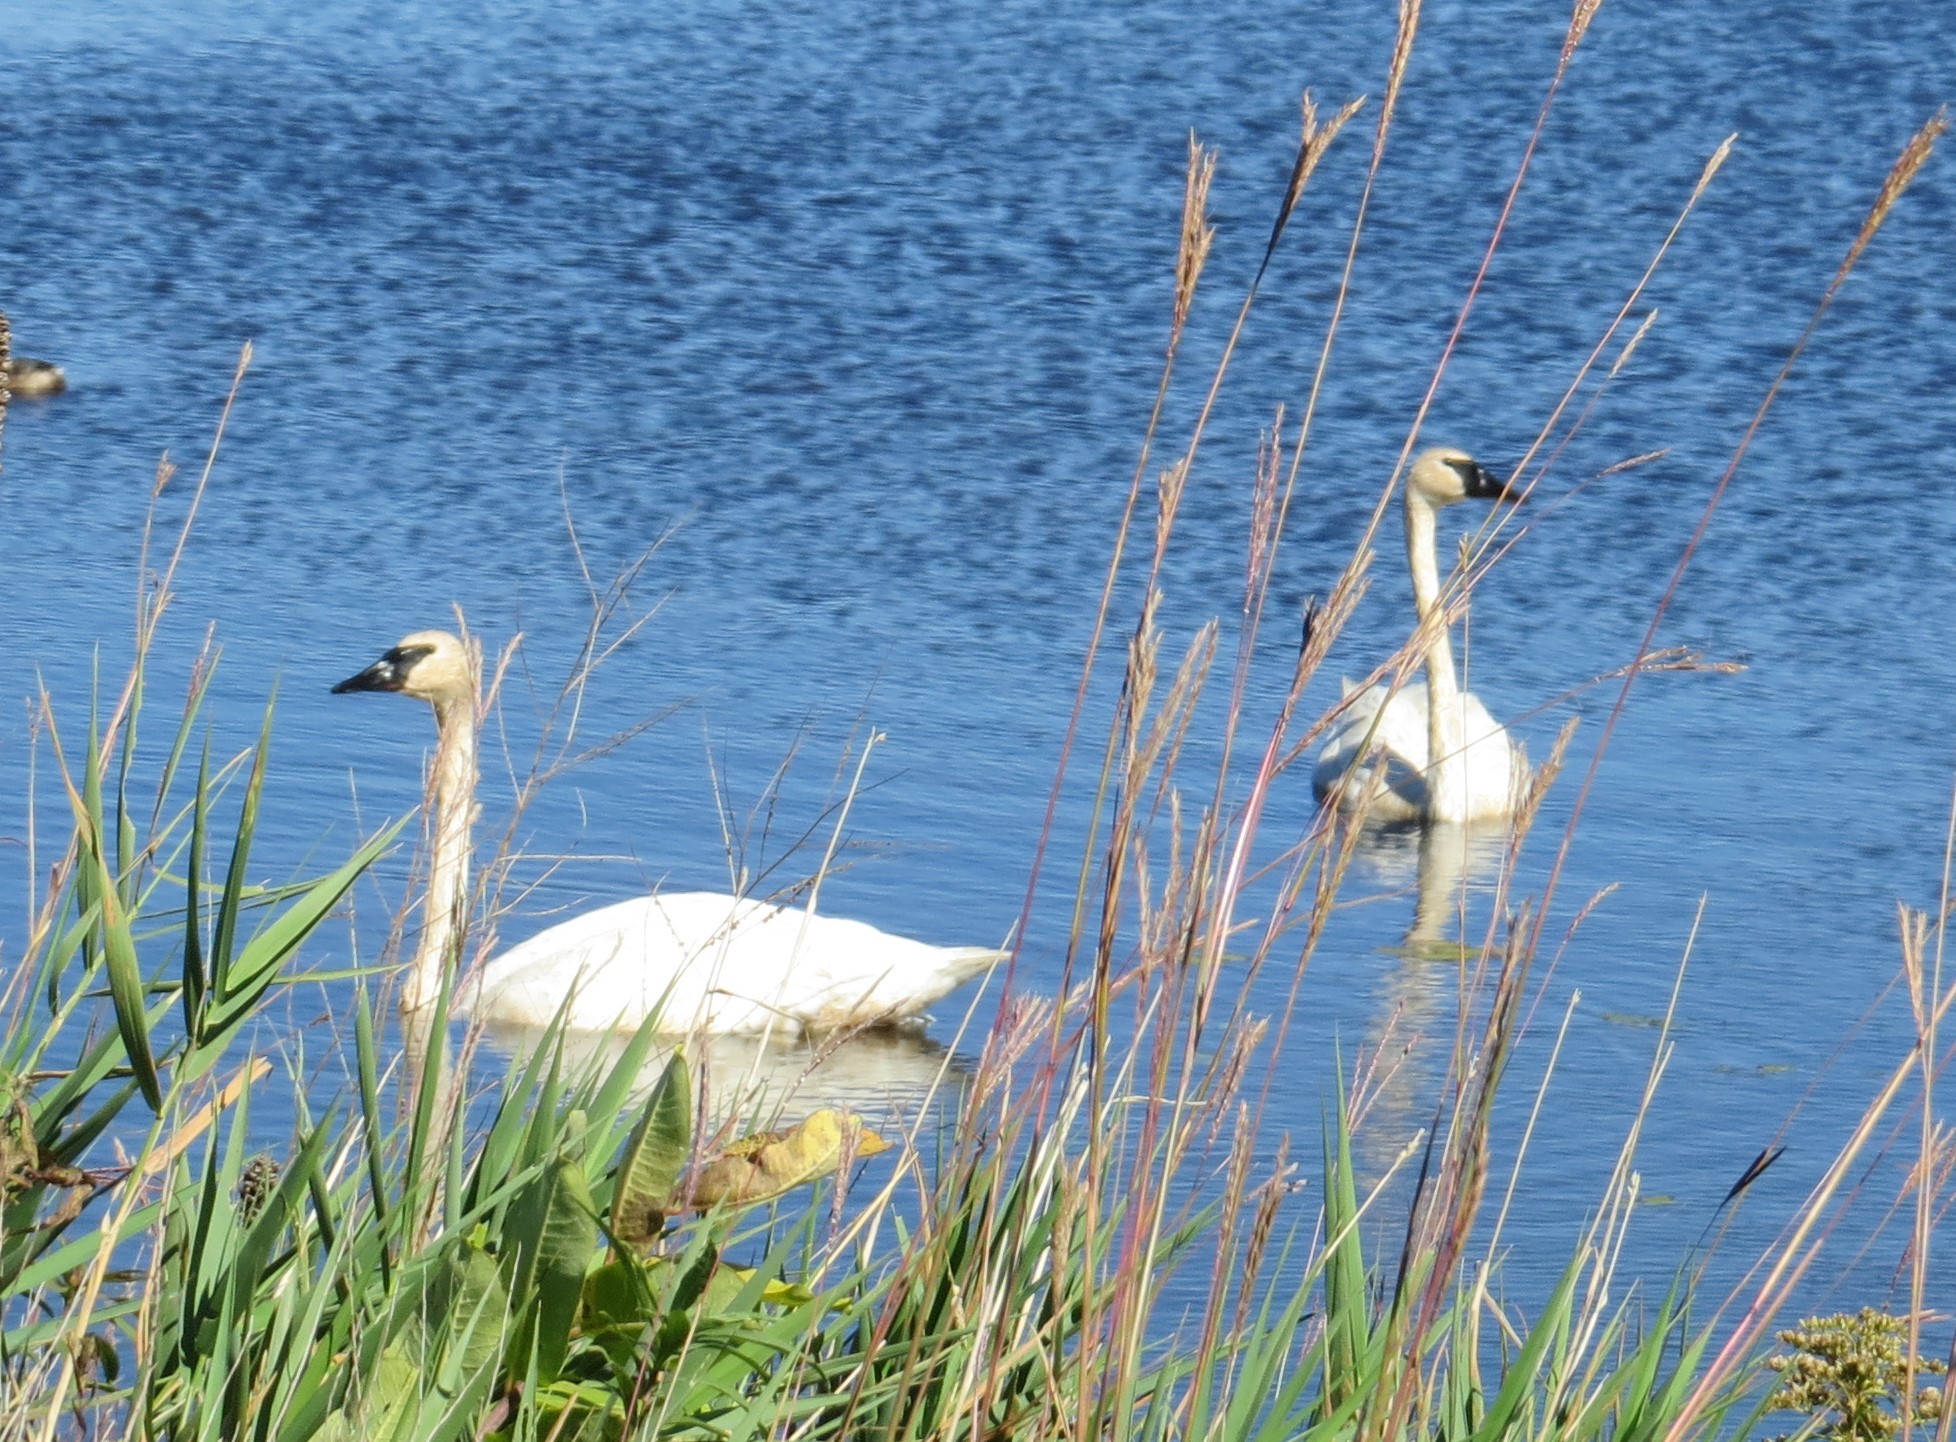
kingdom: Animalia
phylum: Chordata
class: Aves
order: Anseriformes
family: Anatidae
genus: Cygnus
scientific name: Cygnus buccinator
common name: Trumpeter swan
